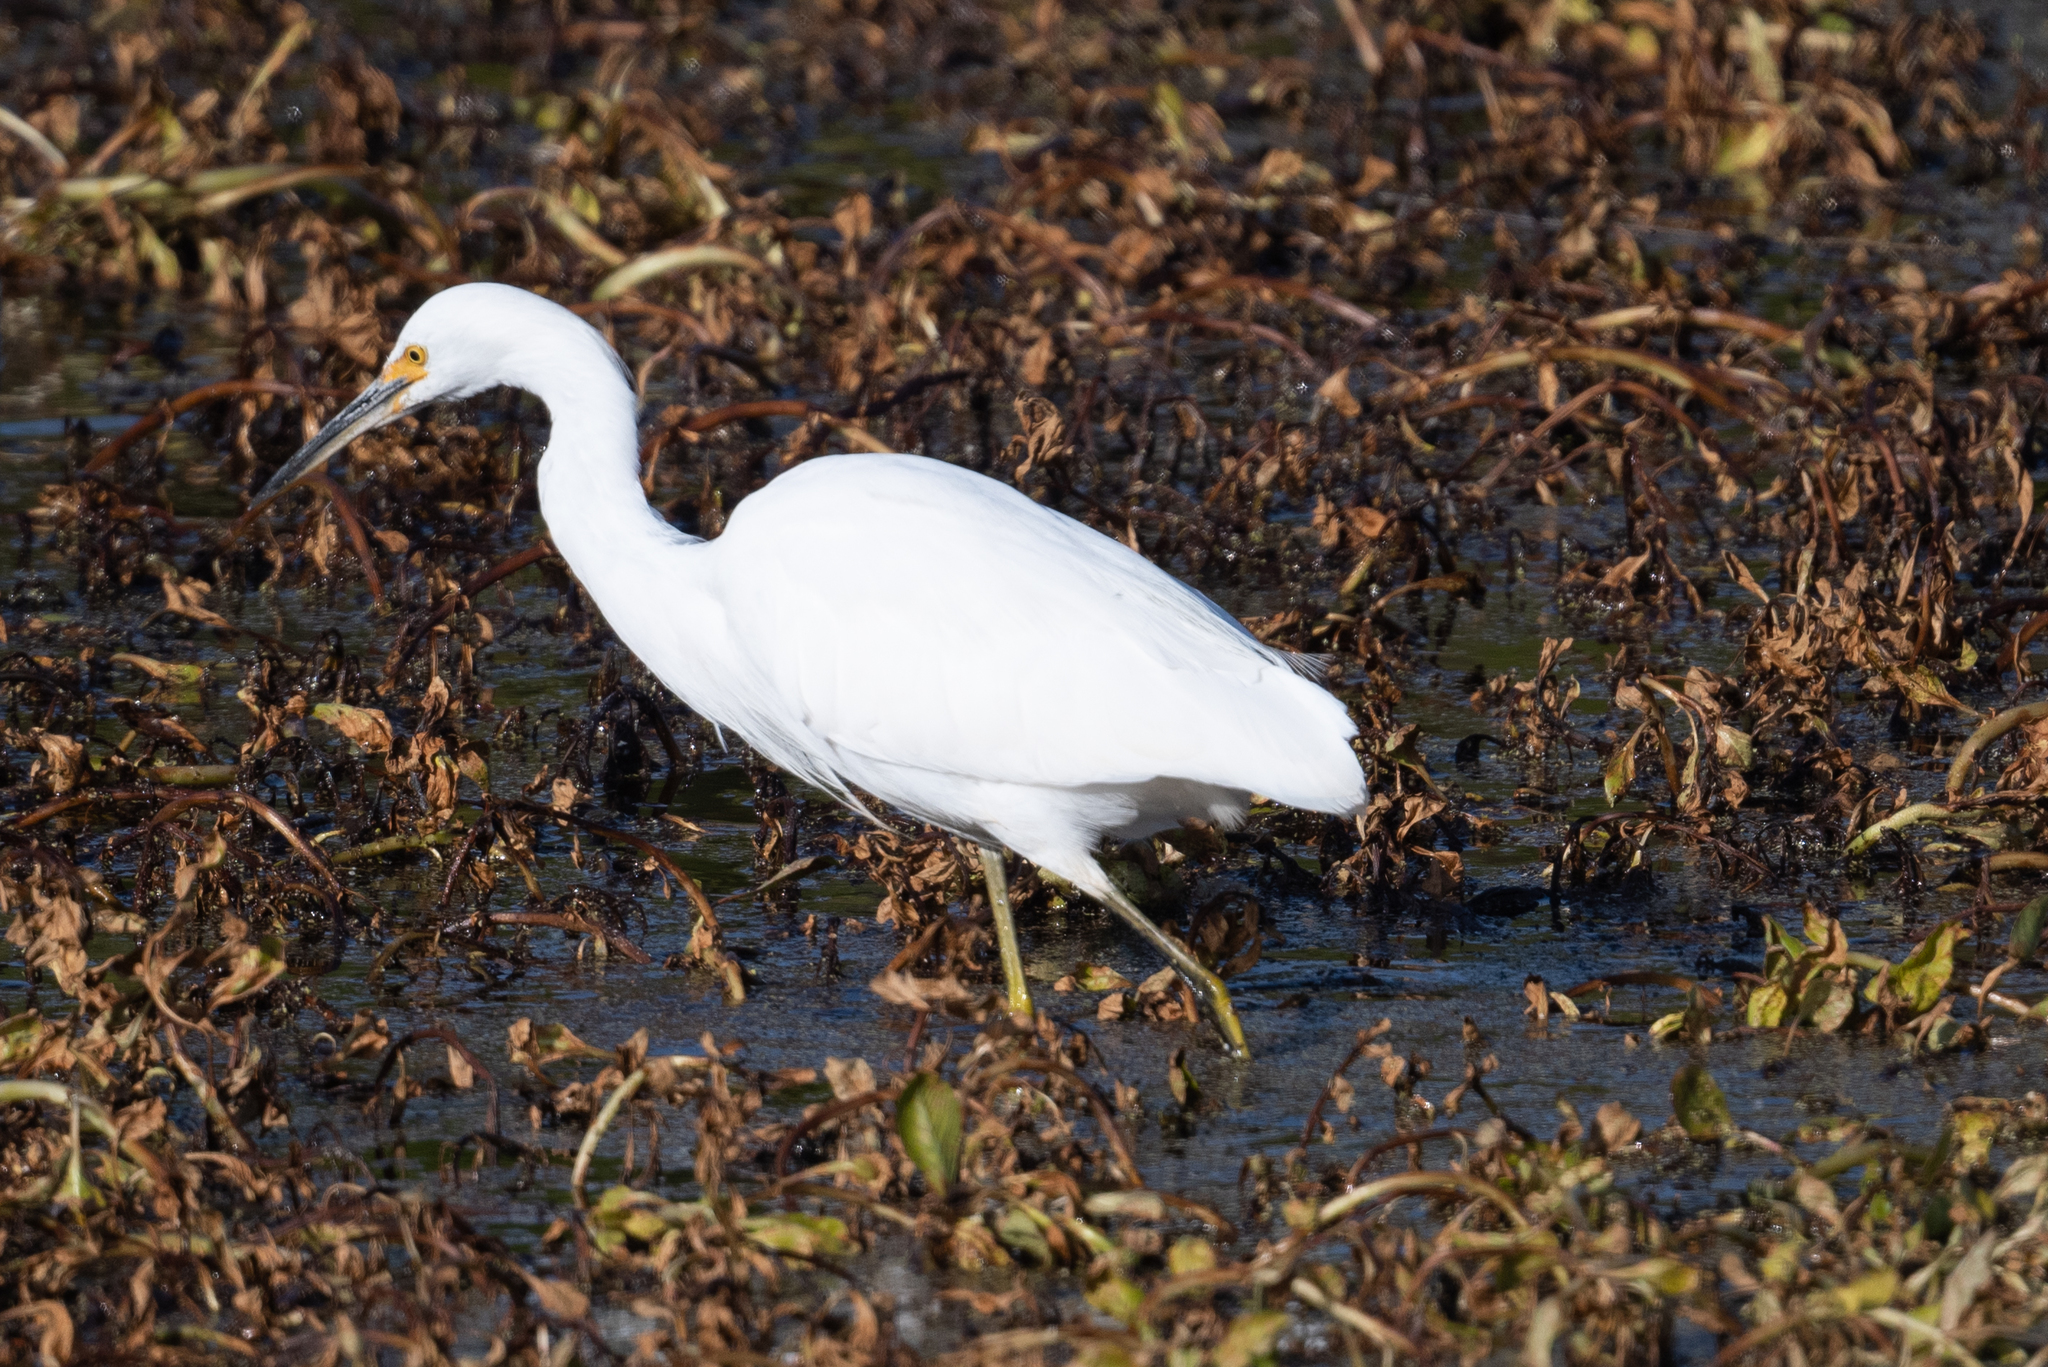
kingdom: Animalia
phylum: Chordata
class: Aves
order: Pelecaniformes
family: Ardeidae
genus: Egretta
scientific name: Egretta thula
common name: Snowy egret
